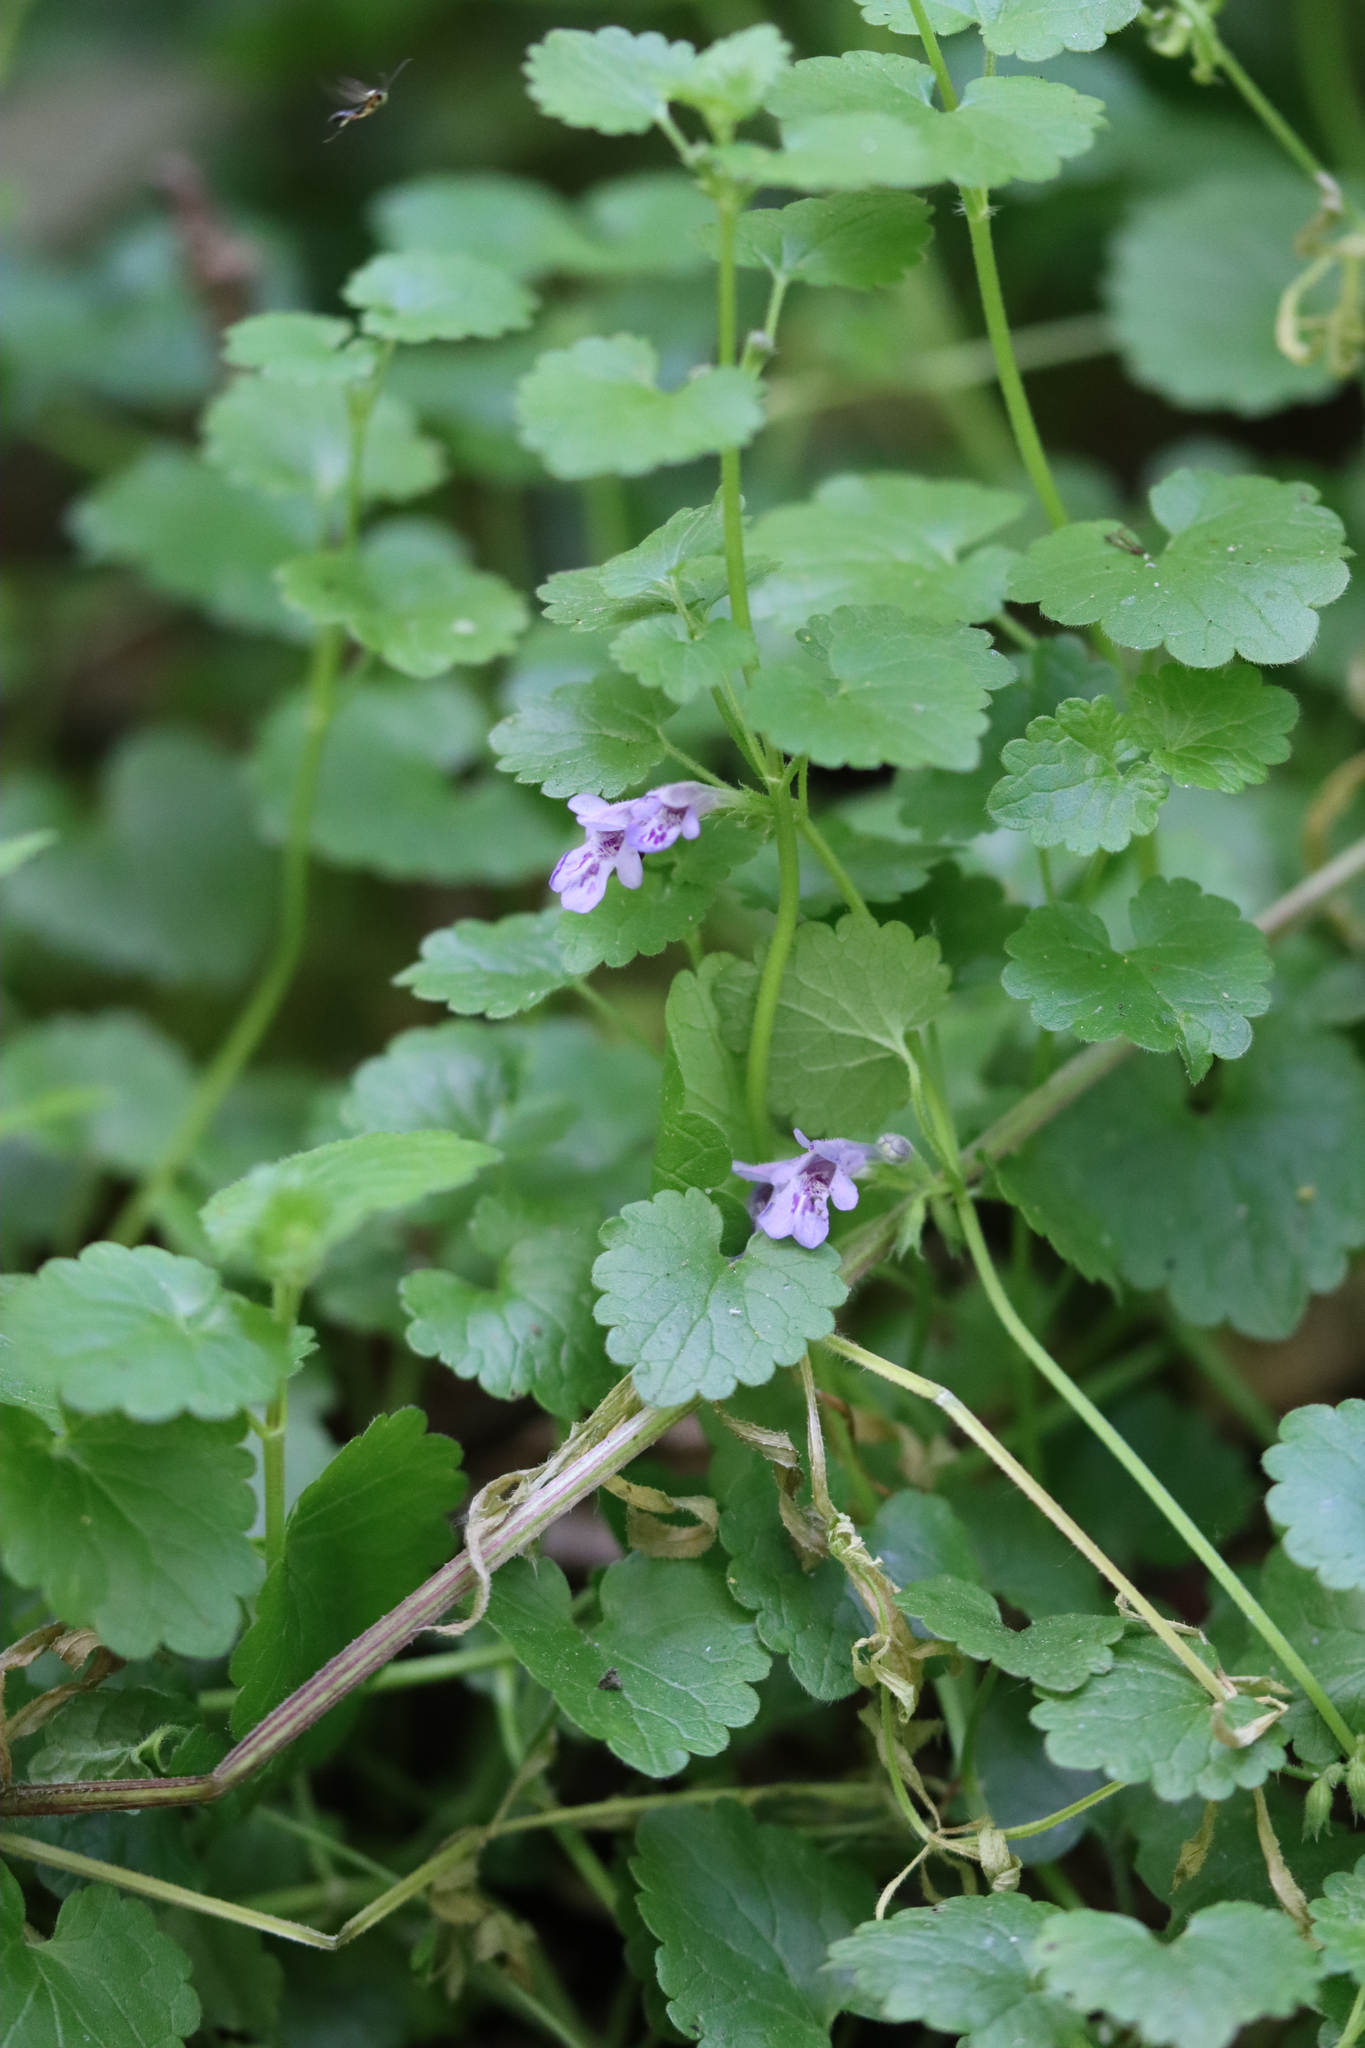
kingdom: Plantae
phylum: Tracheophyta
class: Magnoliopsida
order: Lamiales
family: Lamiaceae
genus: Glechoma
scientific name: Glechoma hederacea
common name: Ground ivy
